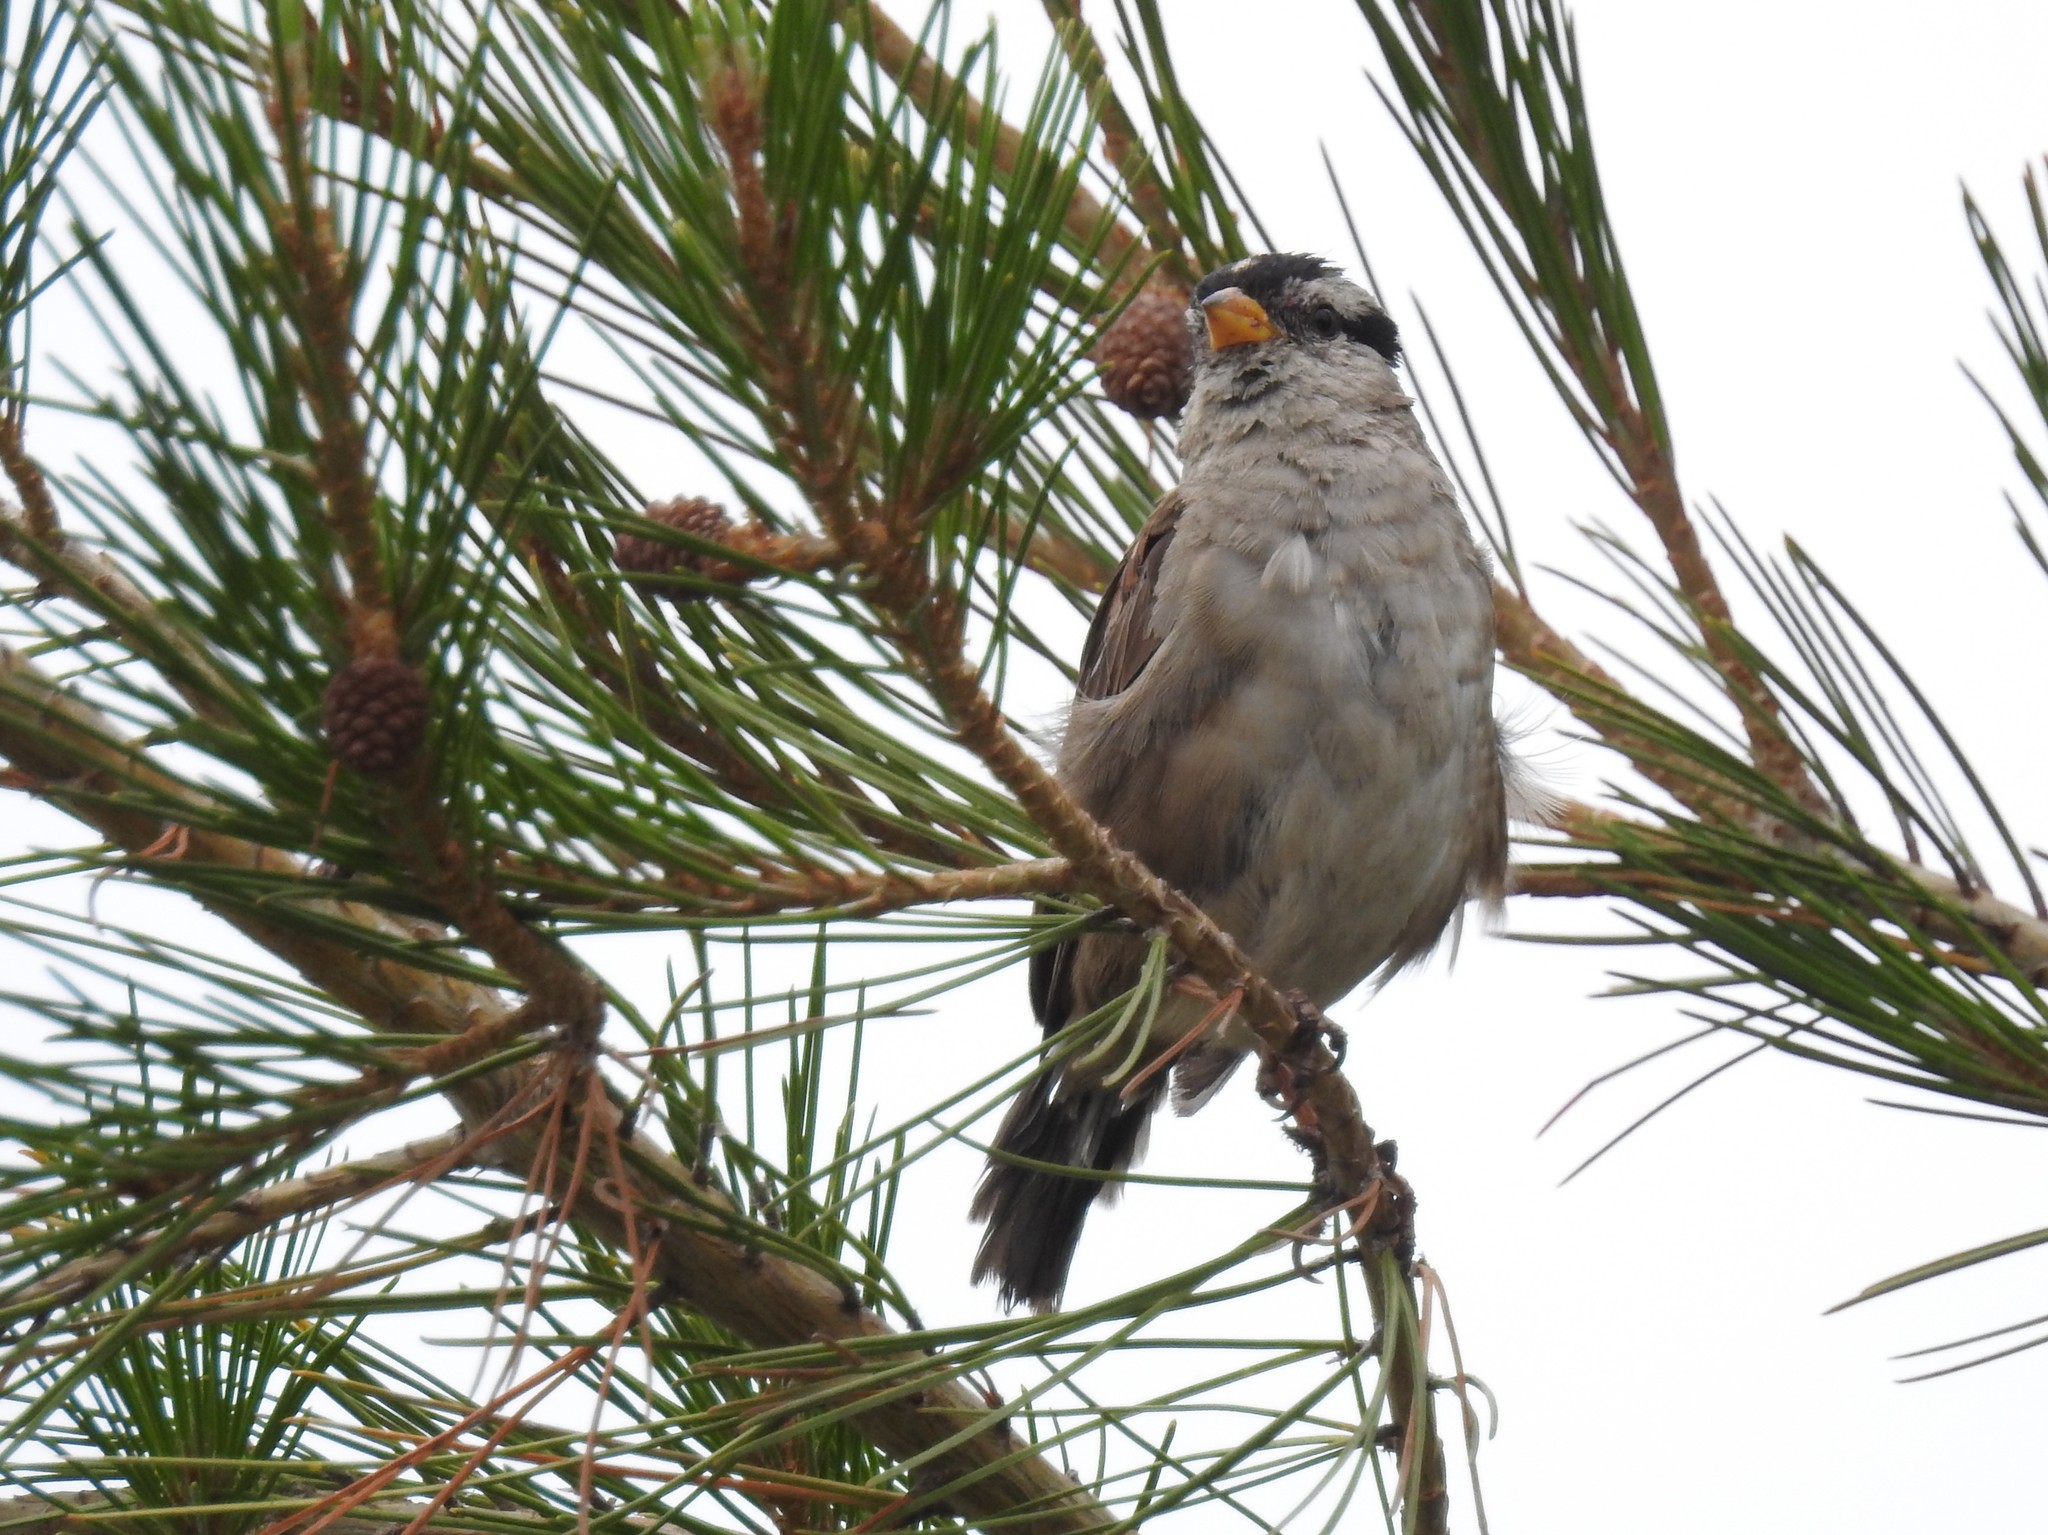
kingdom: Animalia
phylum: Chordata
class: Aves
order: Passeriformes
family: Passerellidae
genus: Zonotrichia
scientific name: Zonotrichia leucophrys
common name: White-crowned sparrow
